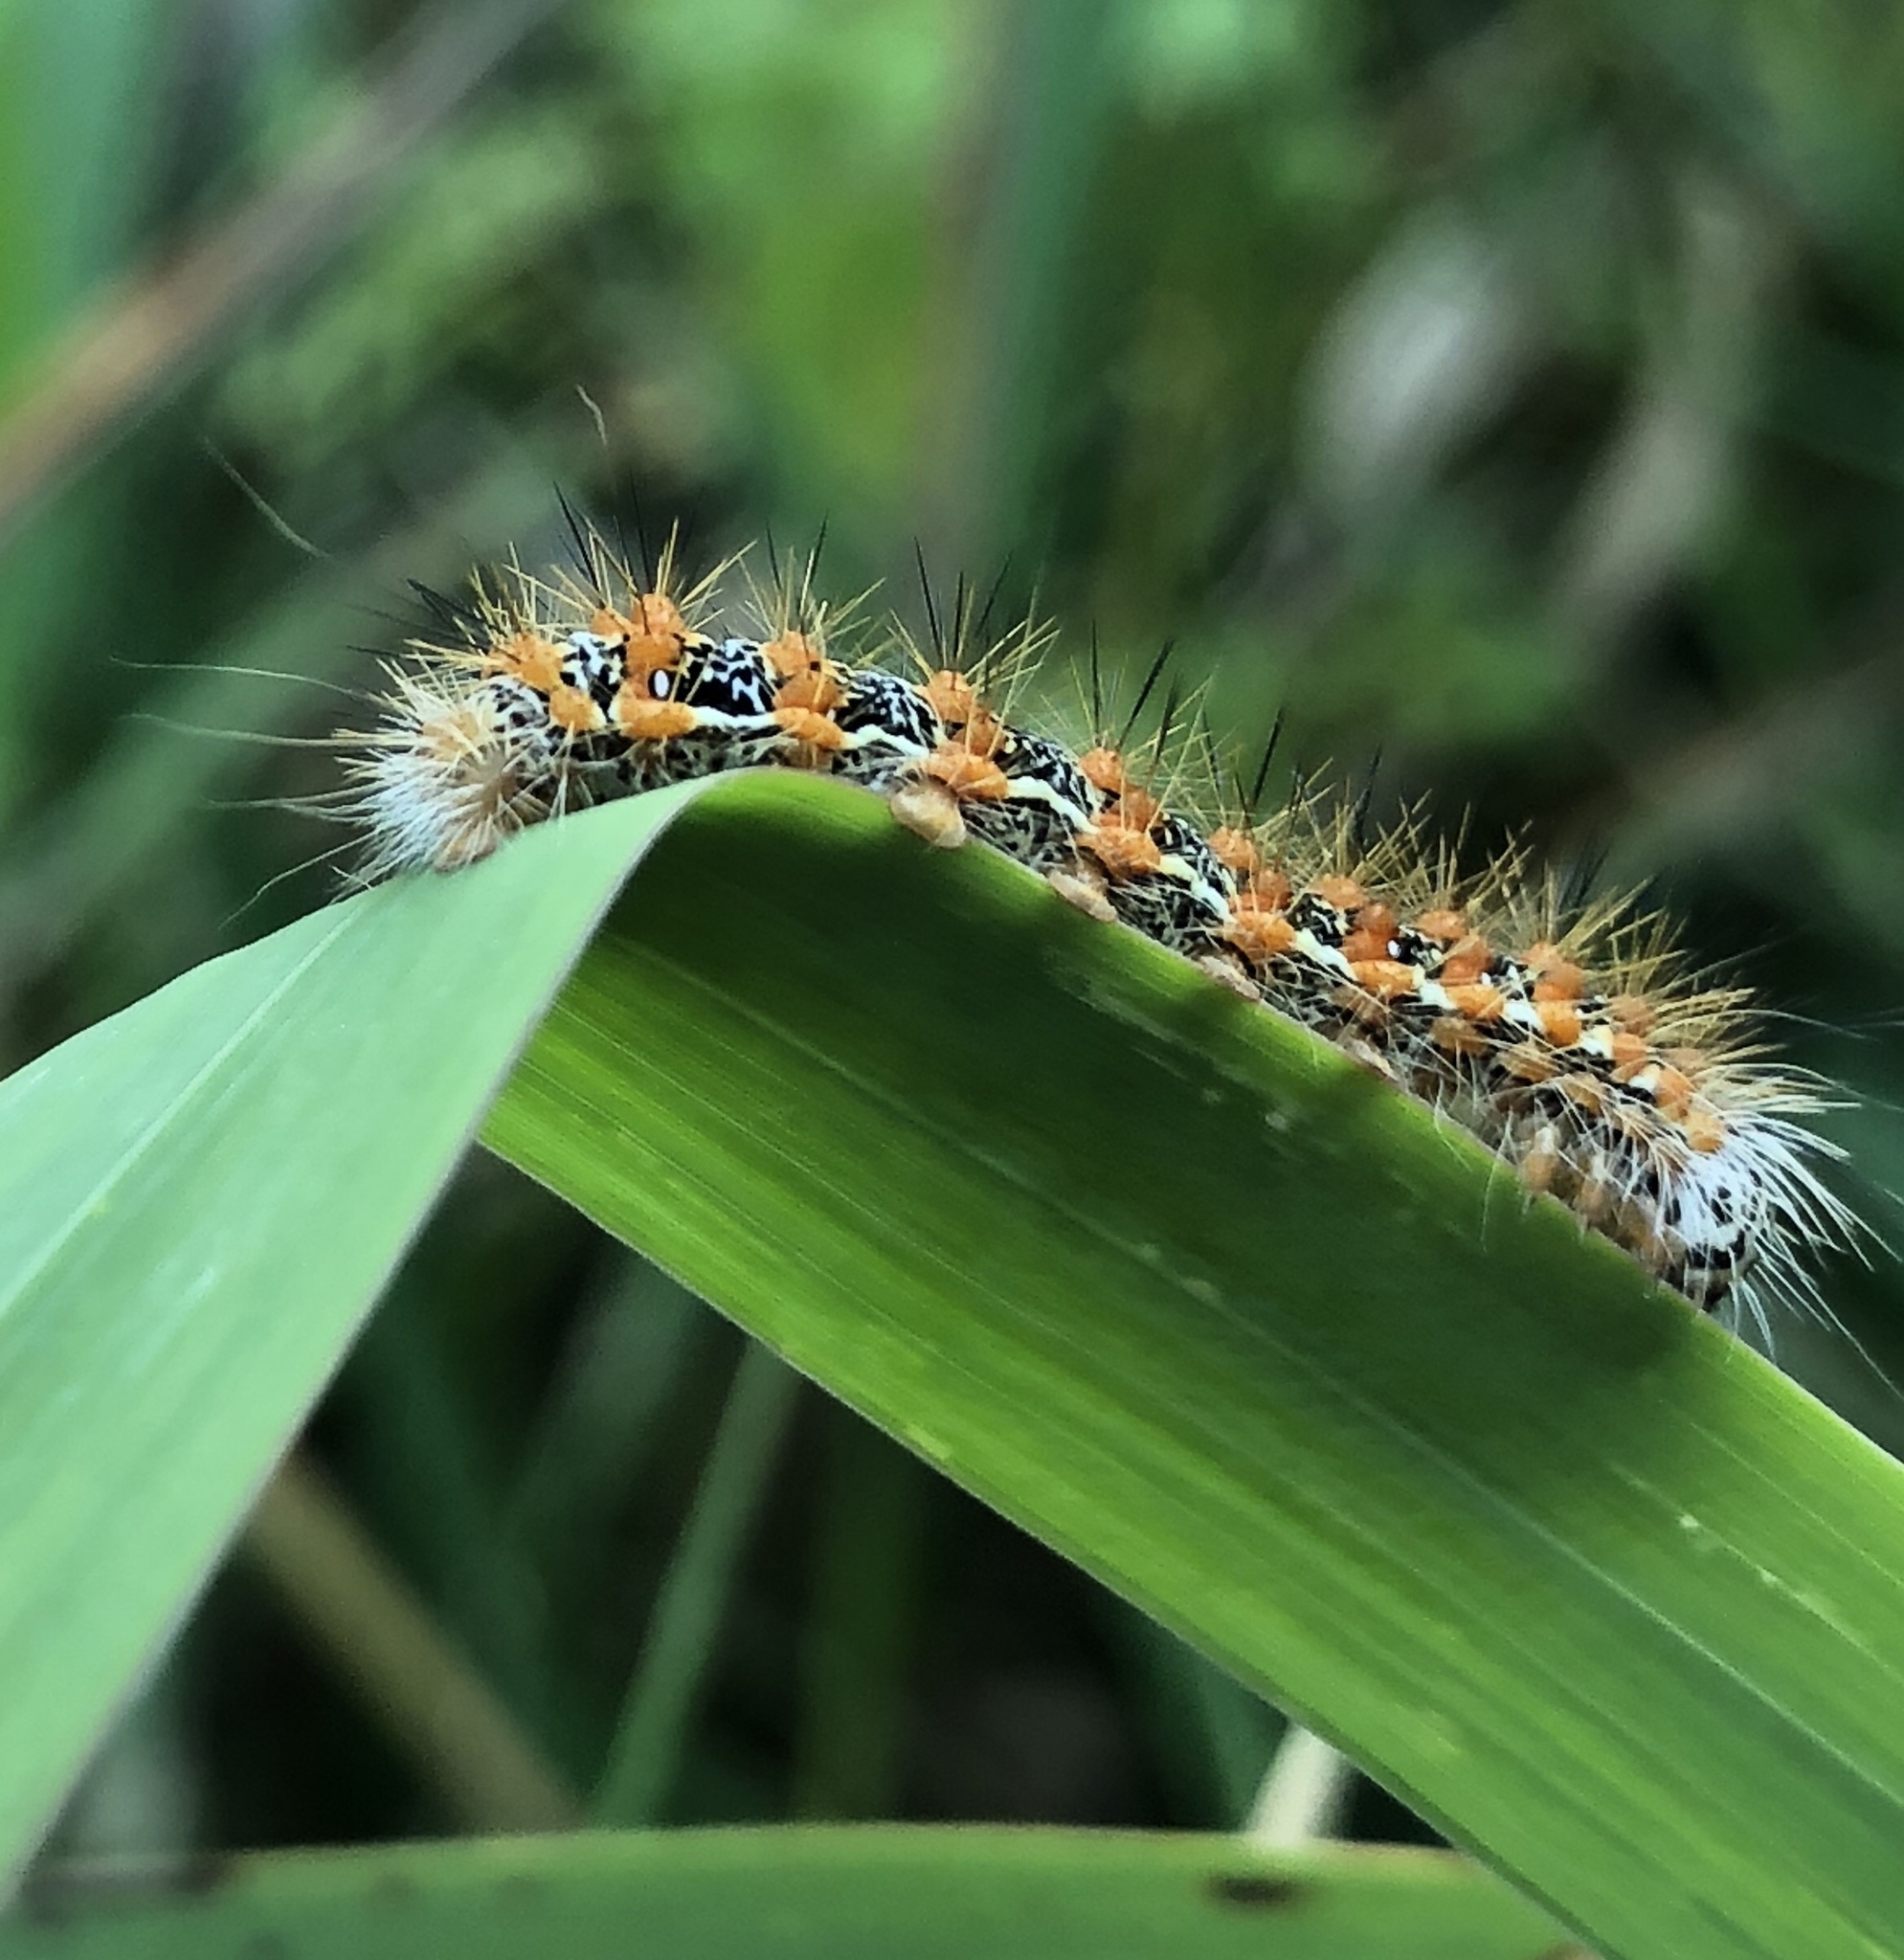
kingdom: Animalia
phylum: Arthropoda
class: Insecta
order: Lepidoptera
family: Noctuidae
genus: Acronicta
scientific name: Acronicta insularis
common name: Henry's marsh moth
